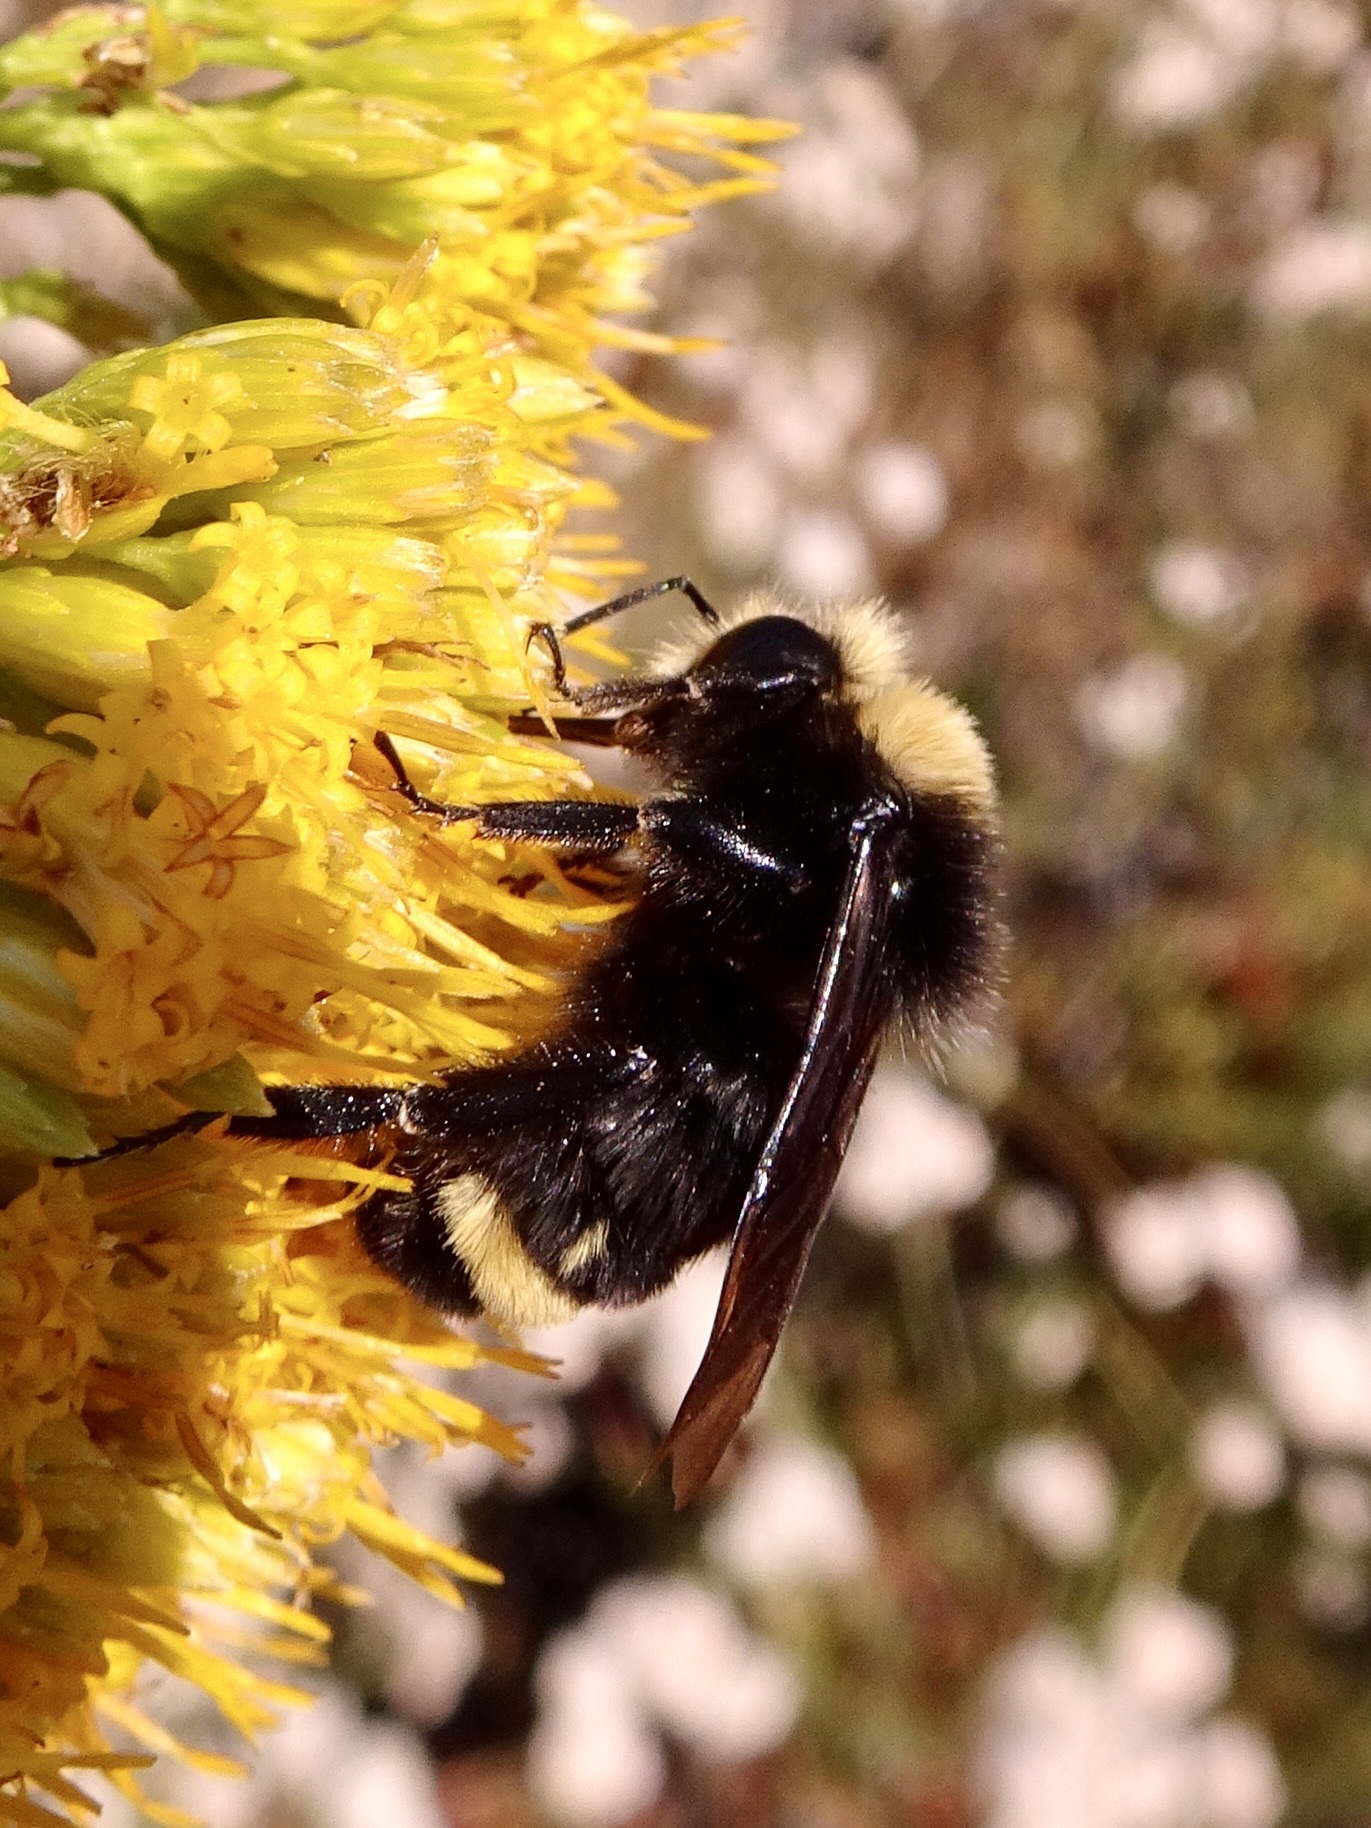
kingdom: Animalia
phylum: Arthropoda
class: Insecta
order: Hymenoptera
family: Apidae
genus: Bombus
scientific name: Bombus vosnesenskii
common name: Vosnesensky bumble bee
